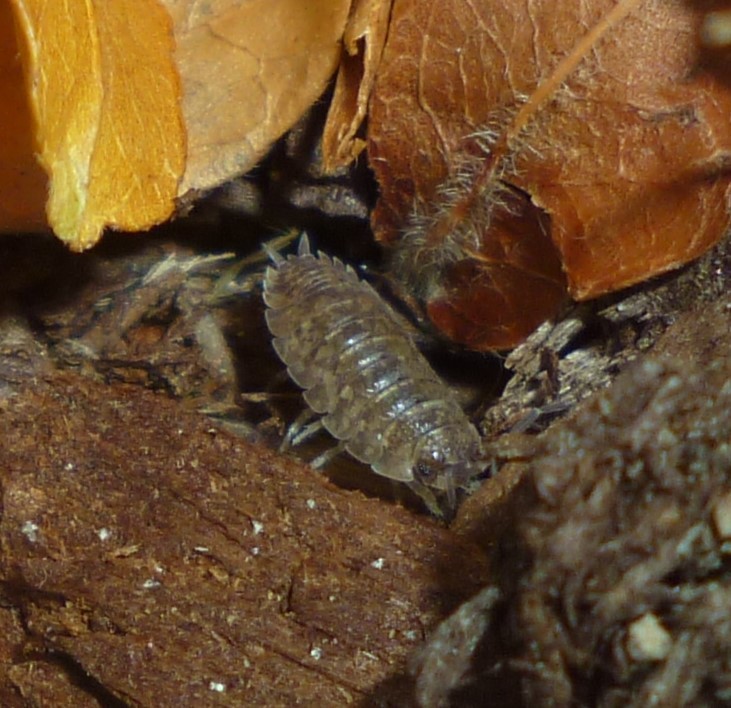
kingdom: Animalia
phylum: Arthropoda
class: Malacostraca
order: Isopoda
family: Porcellionidae
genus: Porcellio
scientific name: Porcellio scaber
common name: Common rough woodlouse
